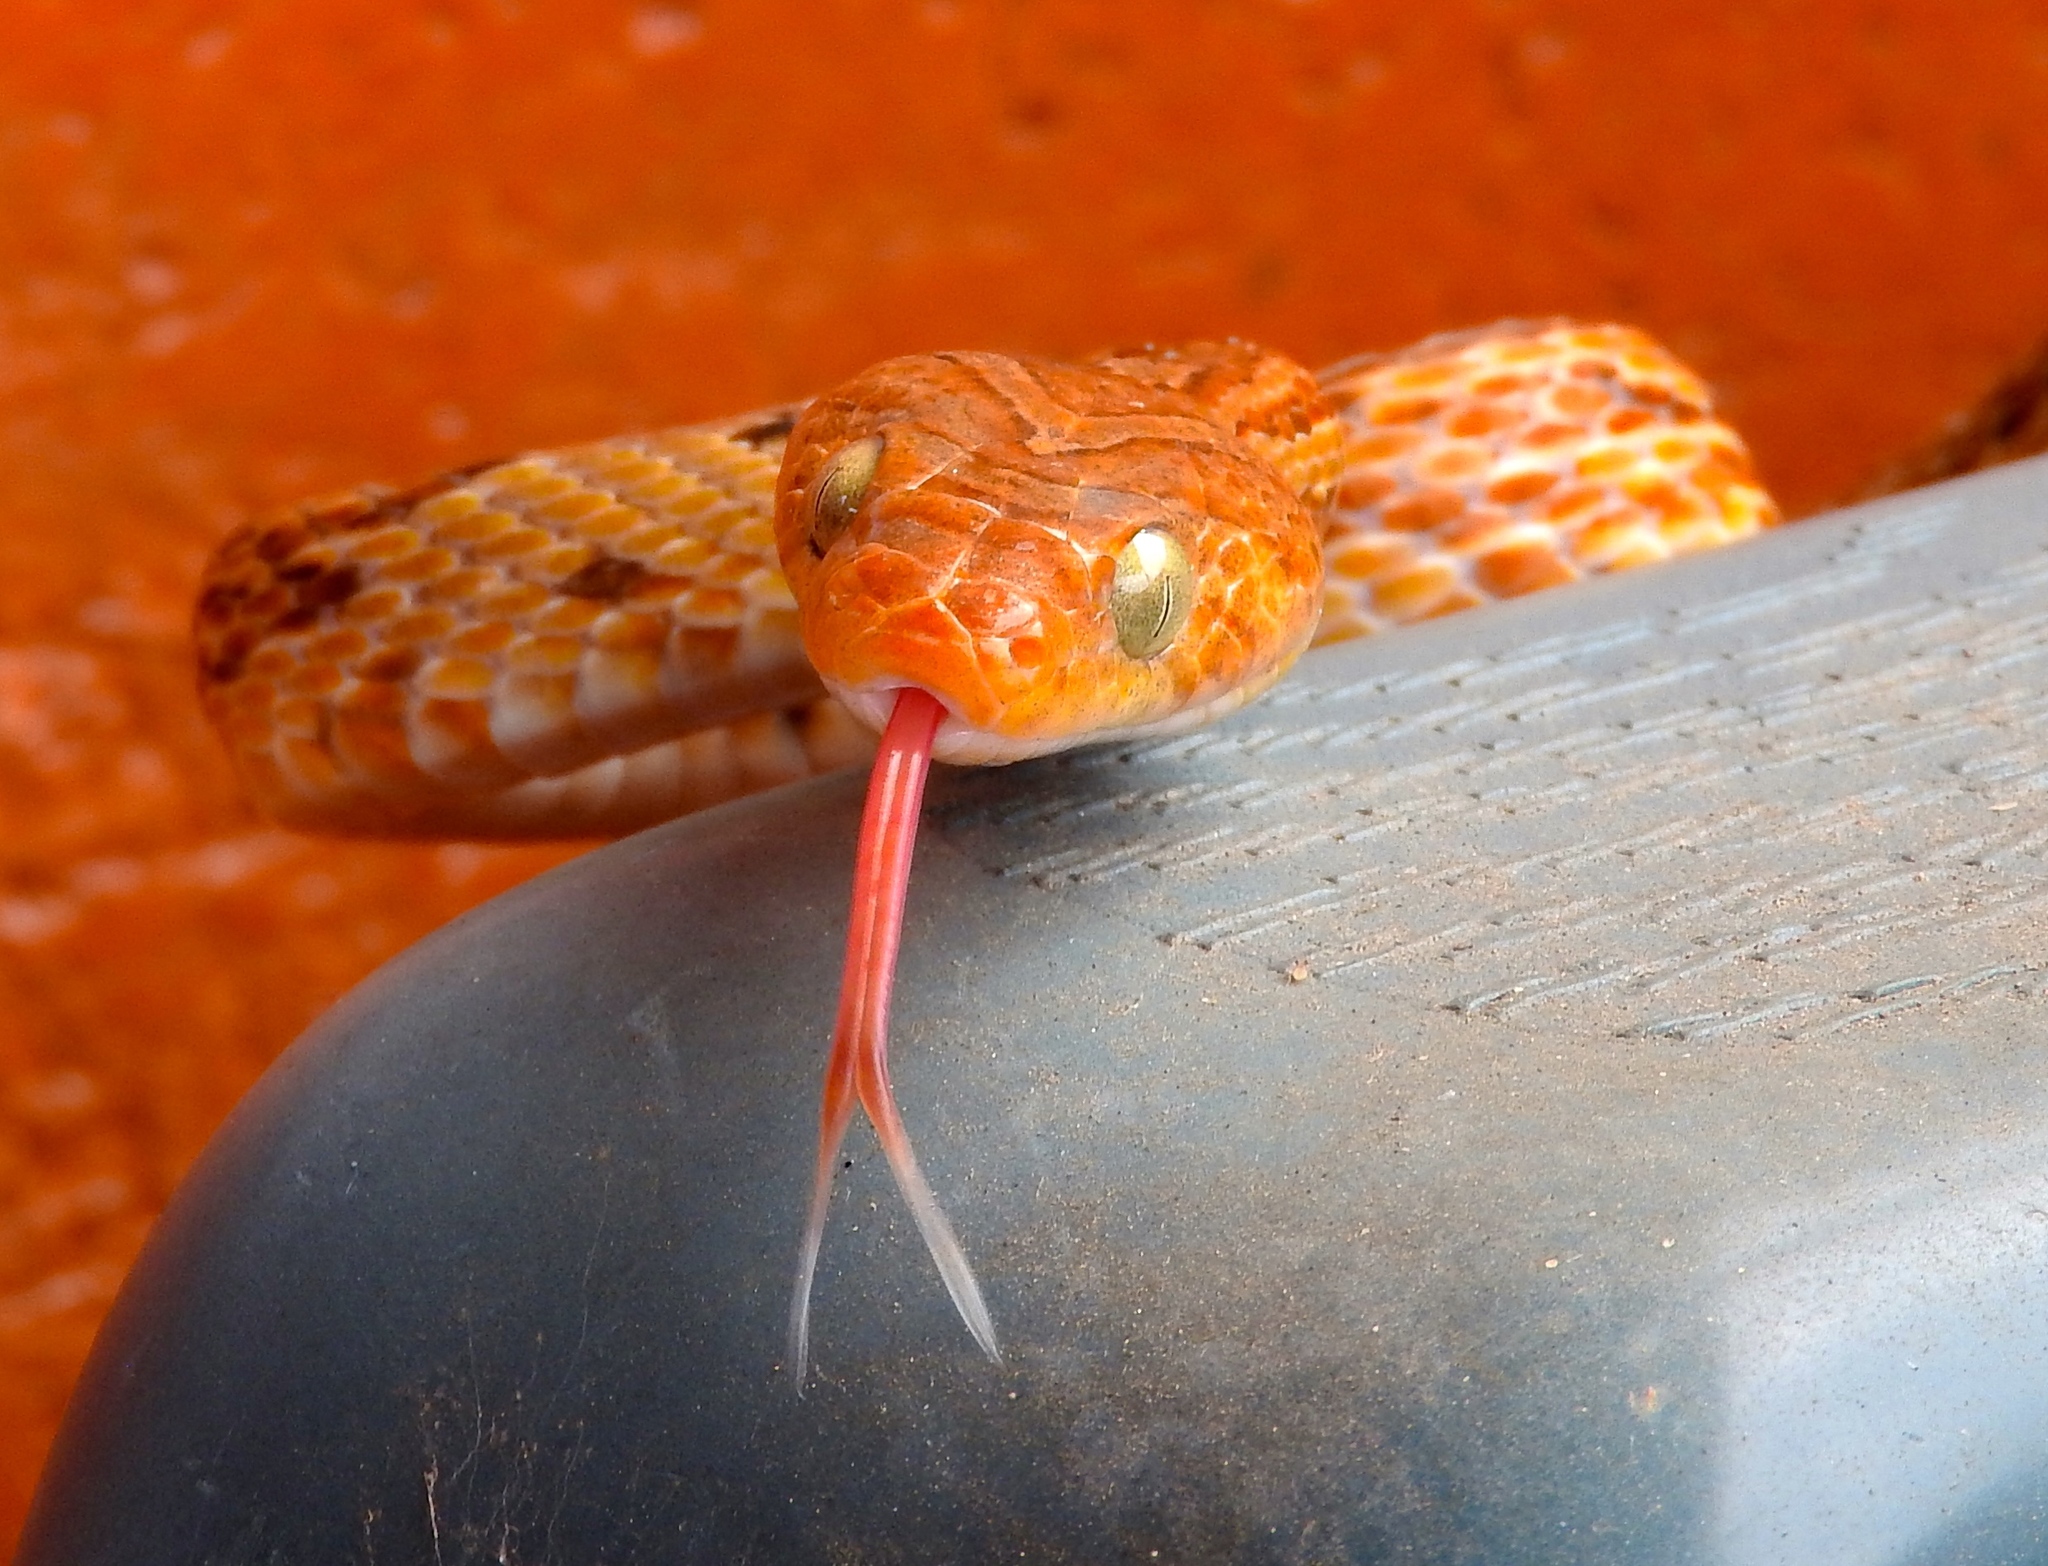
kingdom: Animalia
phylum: Chordata
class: Squamata
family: Colubridae
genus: Trimorphodon
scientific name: Trimorphodon paucimaculatus
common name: Sinaloan lyresnake
